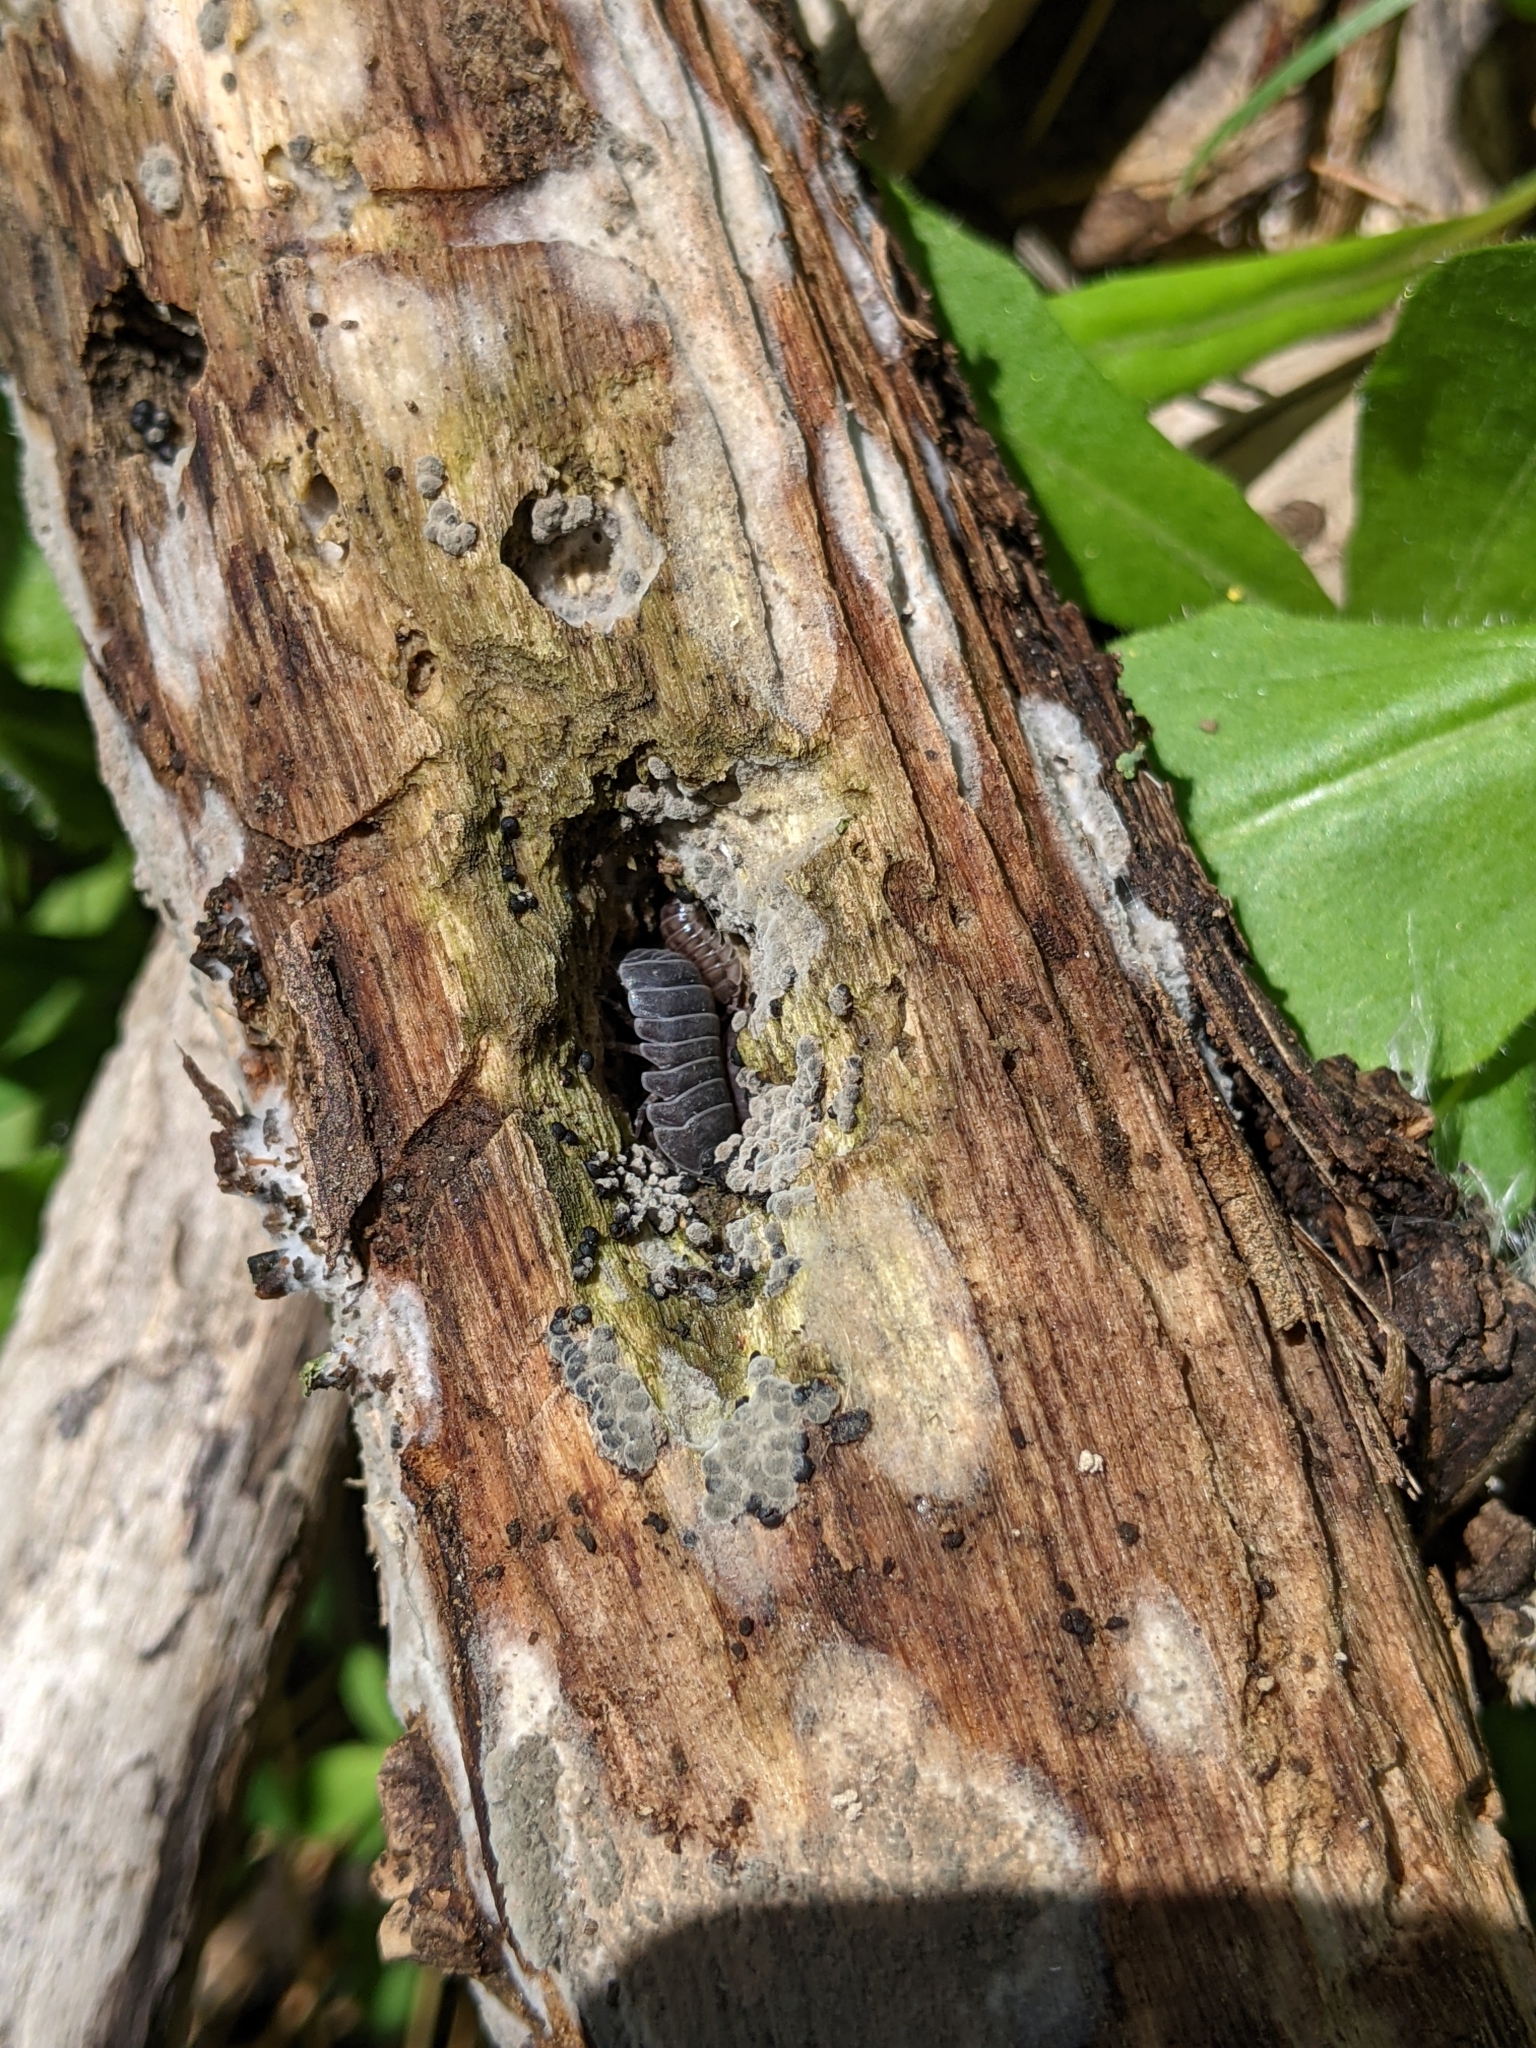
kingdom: Animalia
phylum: Arthropoda
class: Malacostraca
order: Isopoda
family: Armadillidiidae
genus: Armadillidium
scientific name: Armadillidium nasatum
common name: Isopod
